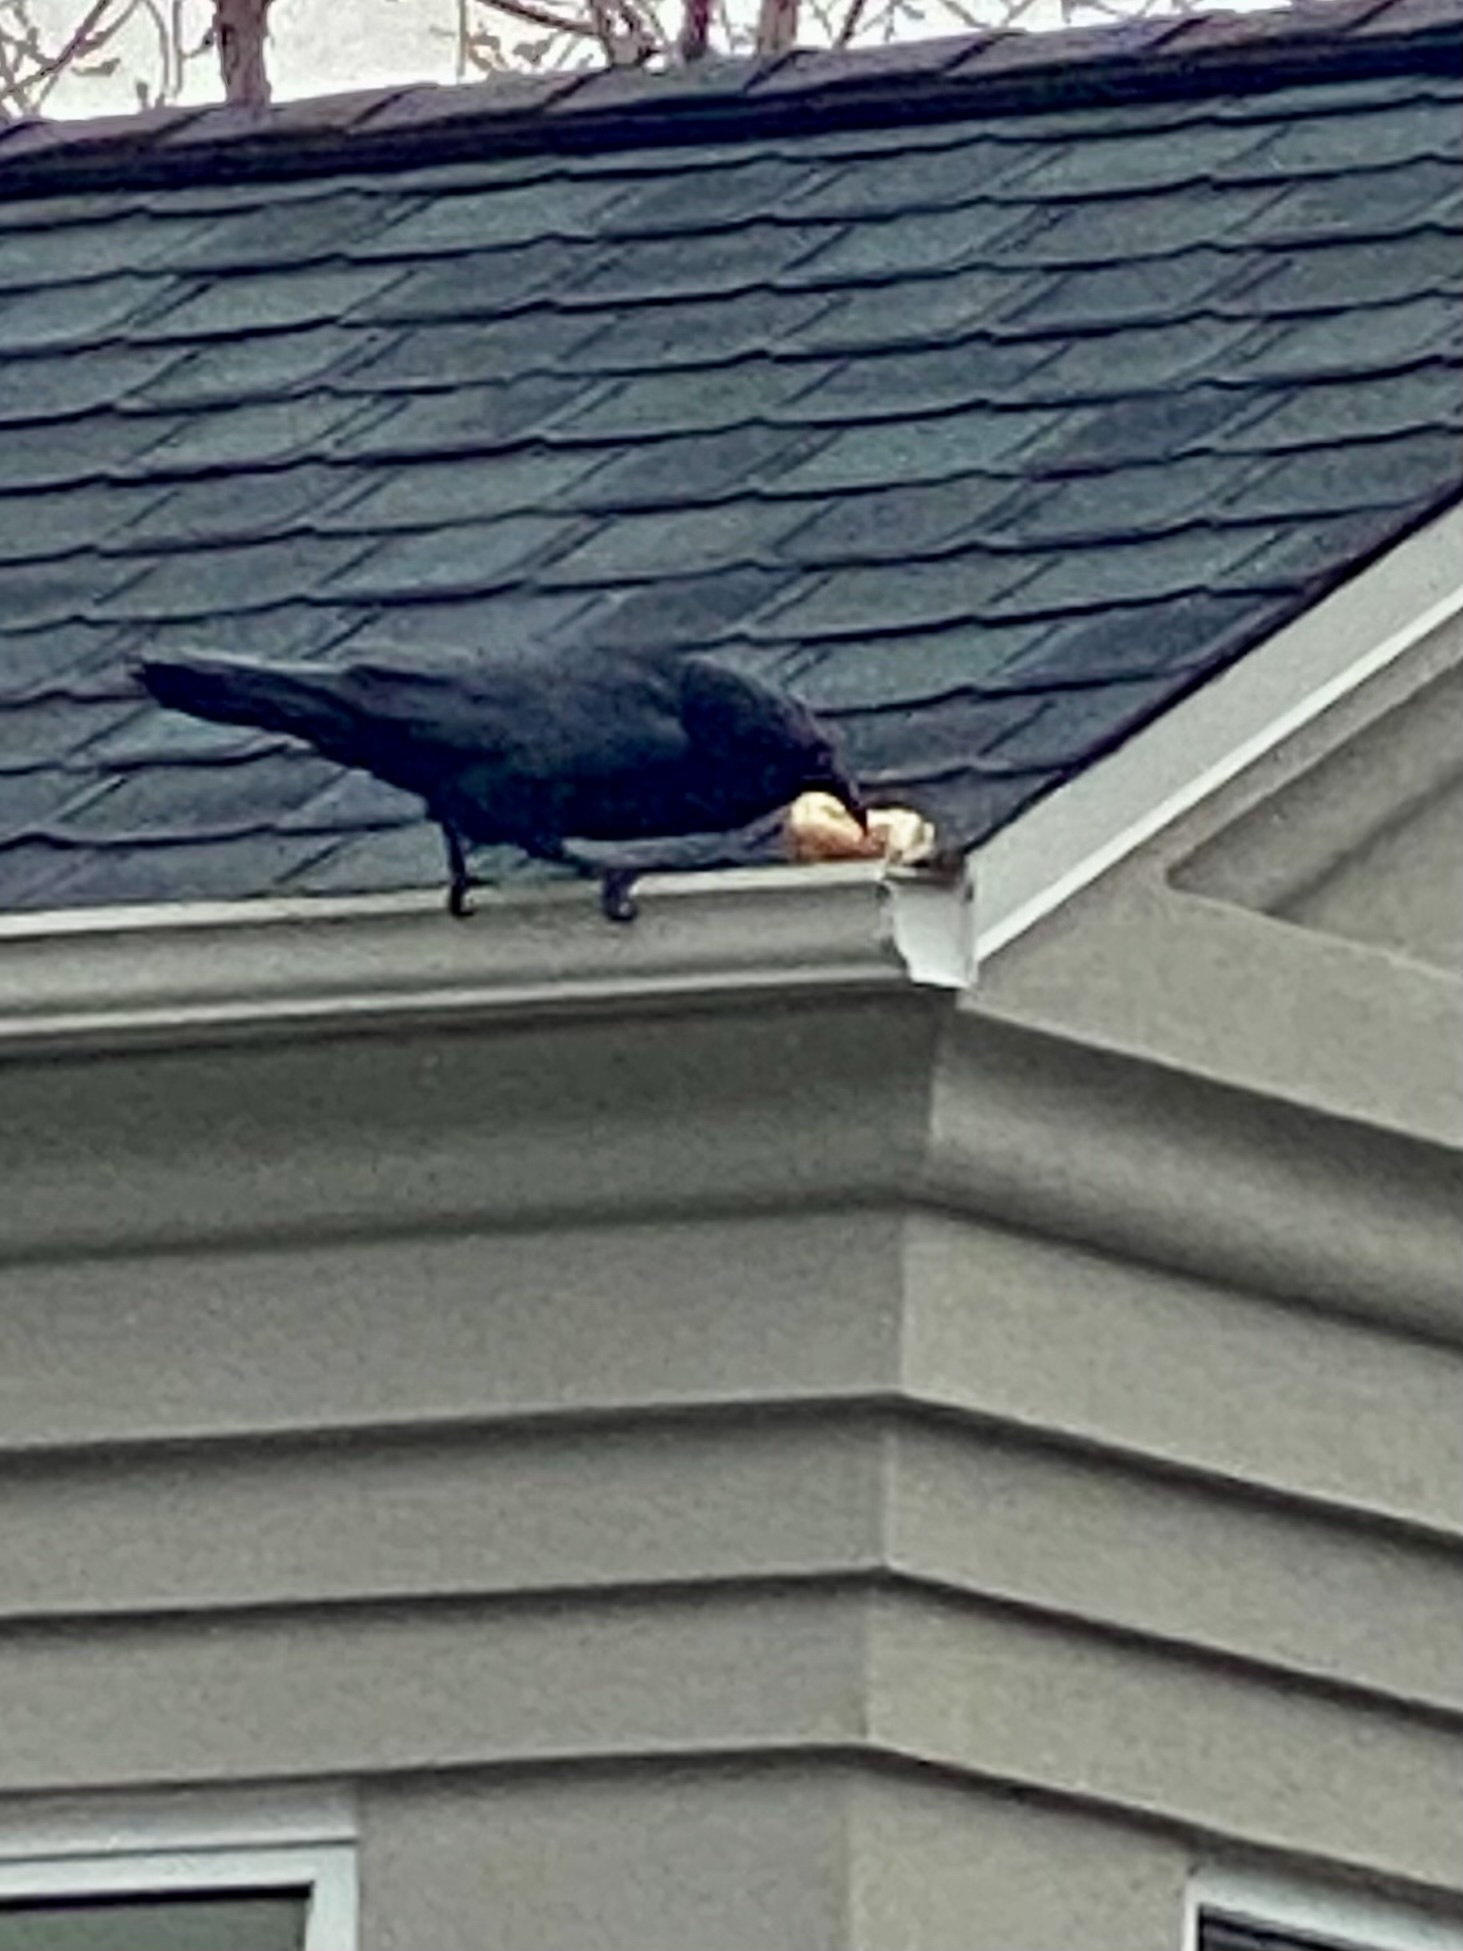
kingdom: Animalia
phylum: Chordata
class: Aves
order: Passeriformes
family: Corvidae
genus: Corvus
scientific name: Corvus corax
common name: Common raven
